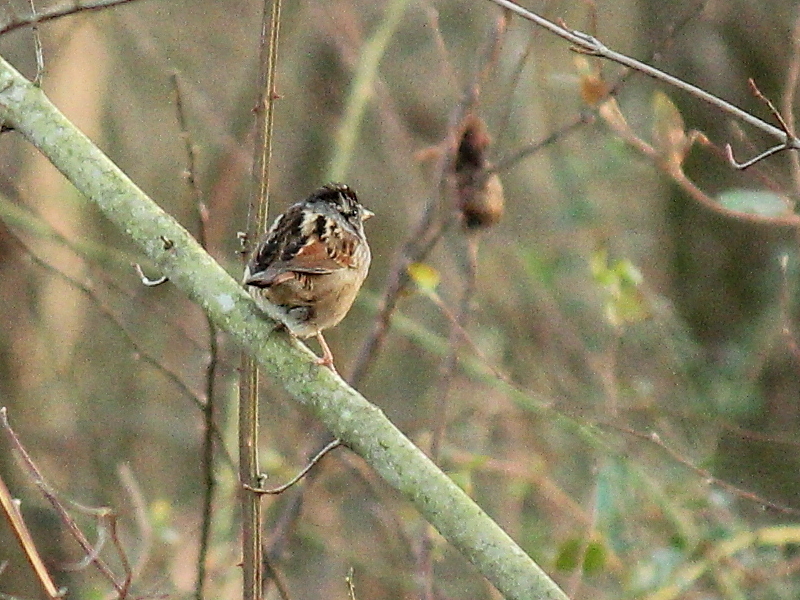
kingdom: Animalia
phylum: Chordata
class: Aves
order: Passeriformes
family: Passerellidae
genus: Melospiza
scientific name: Melospiza georgiana
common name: Swamp sparrow
